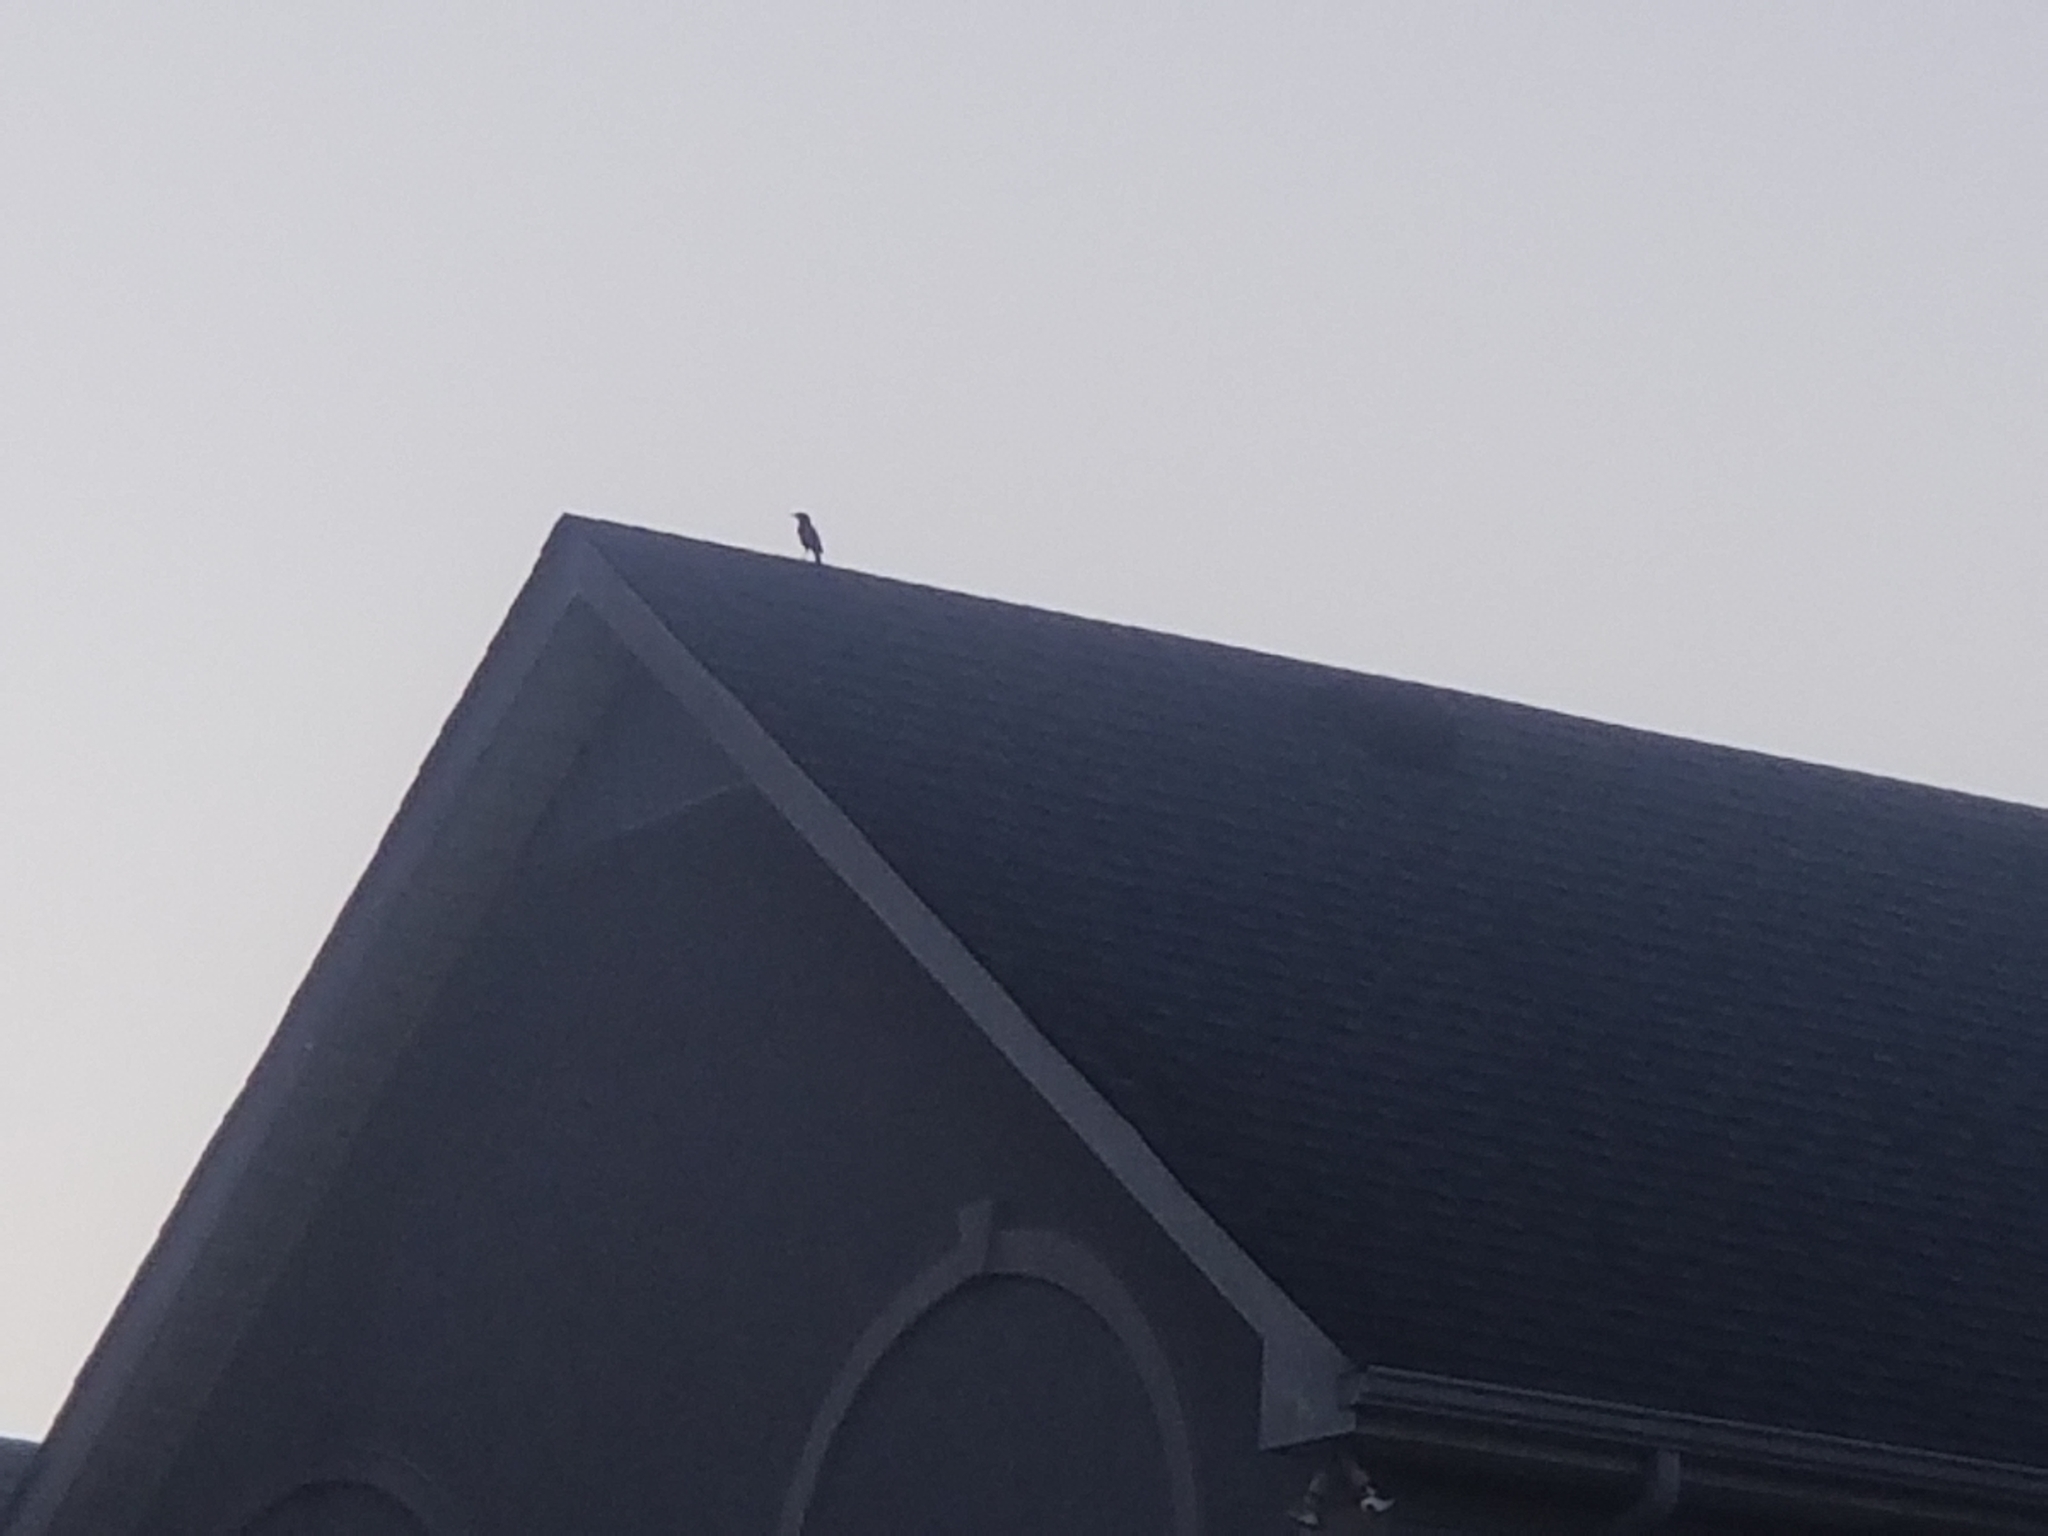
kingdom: Animalia
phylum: Chordata
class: Aves
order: Passeriformes
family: Sturnidae
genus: Sturnus
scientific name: Sturnus vulgaris
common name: Common starling
